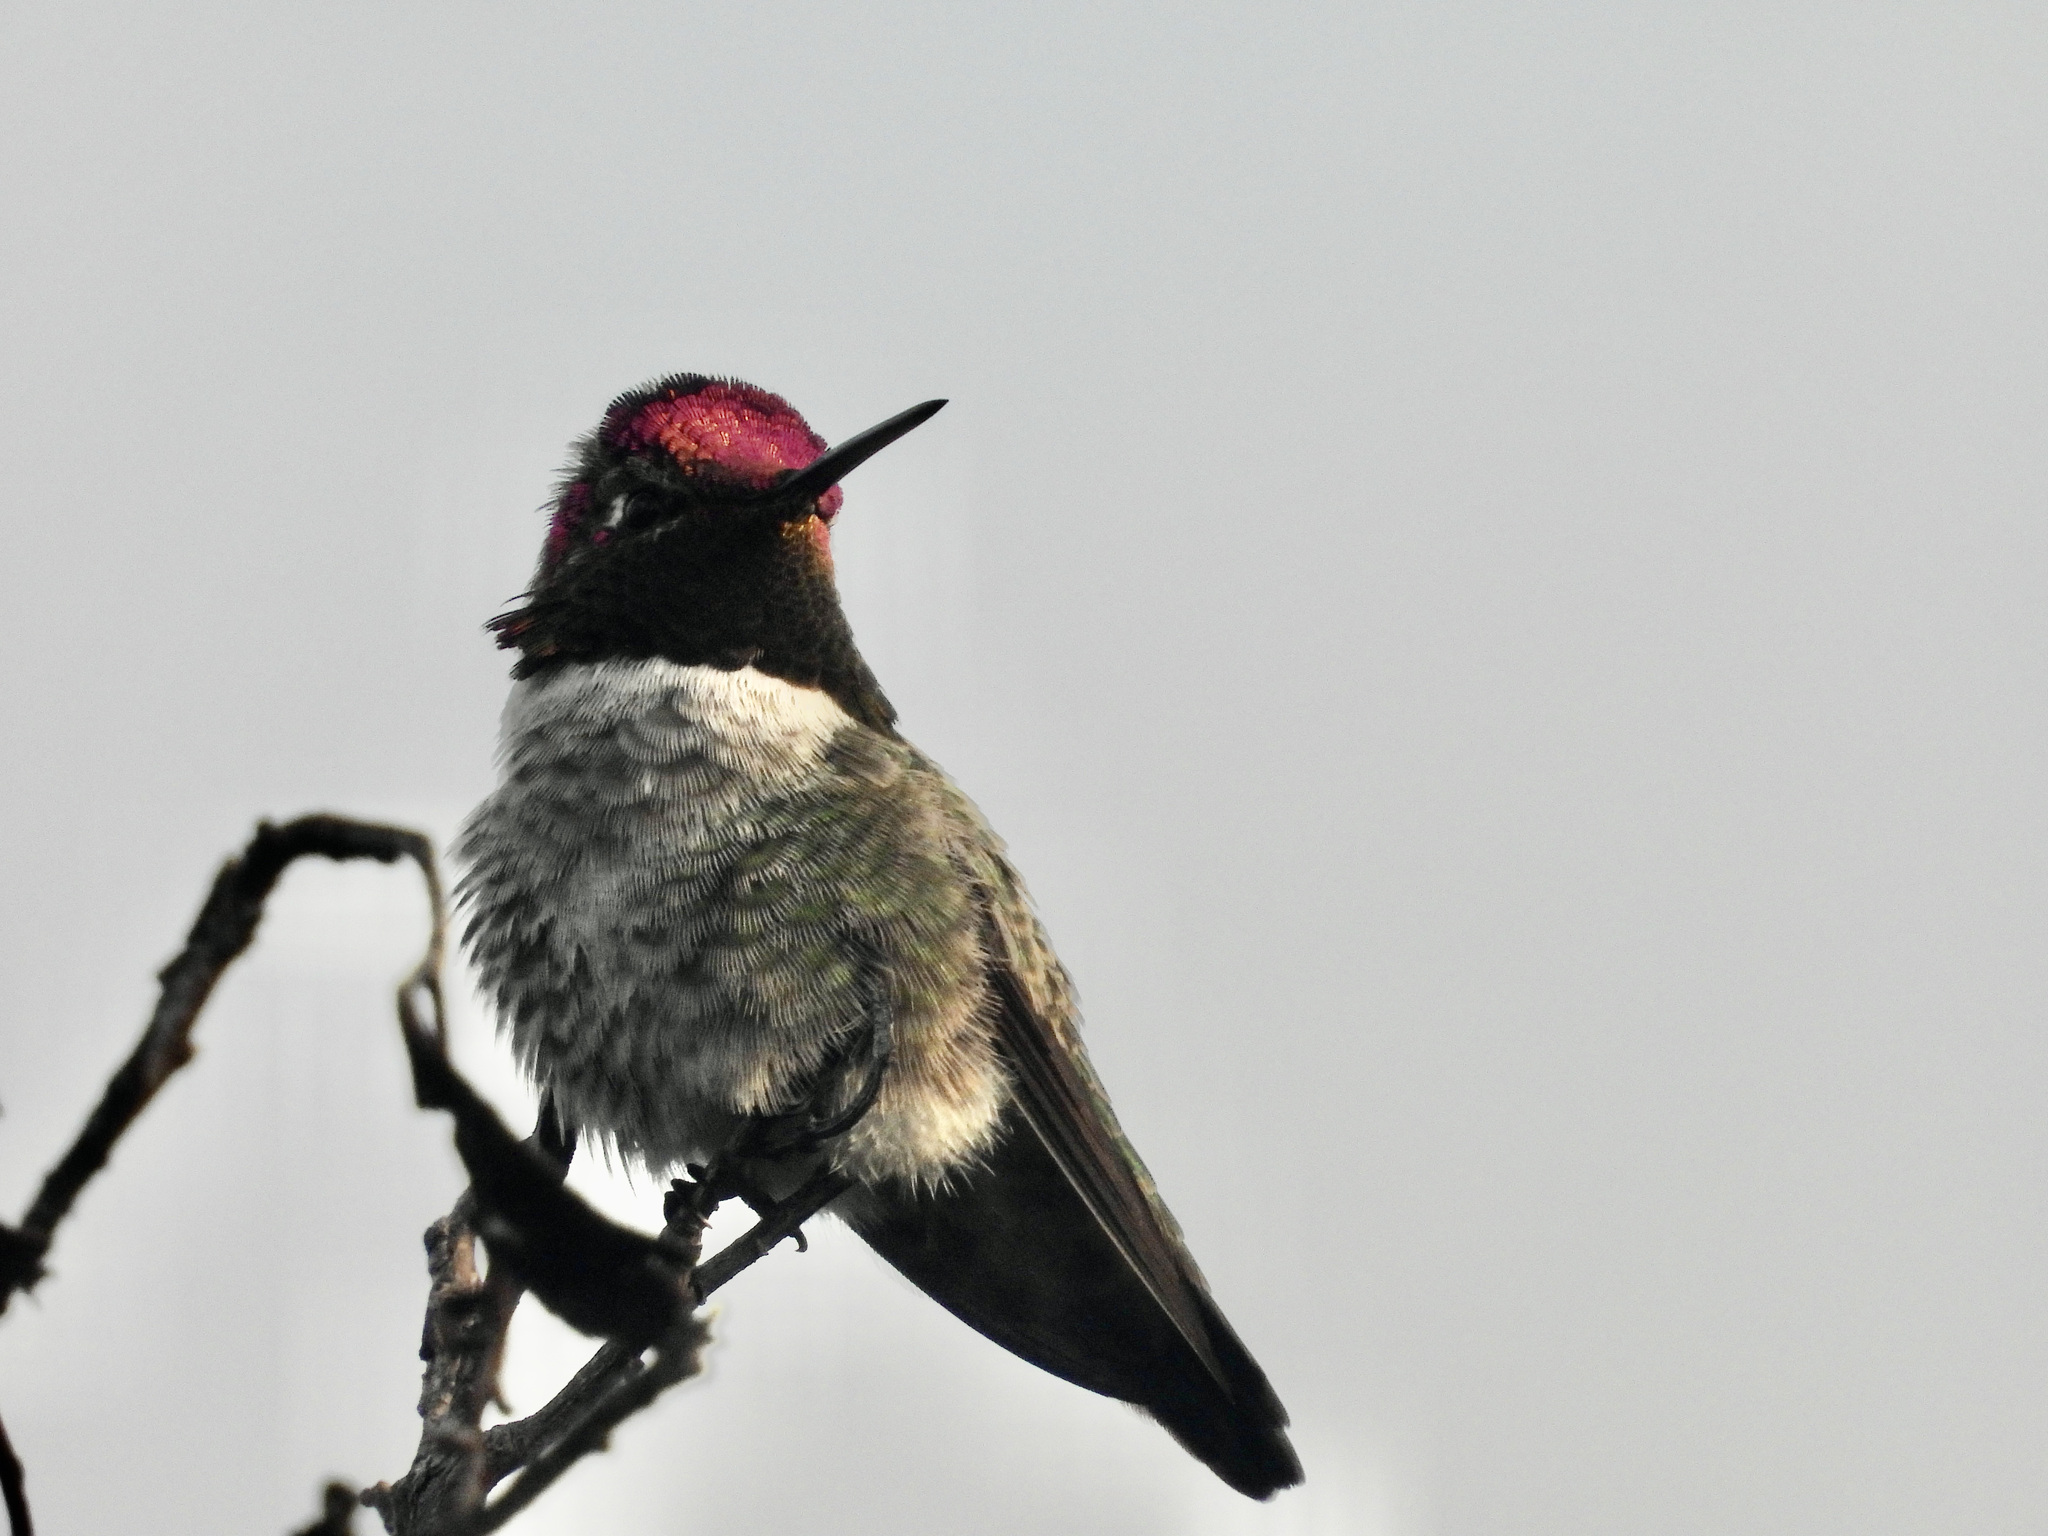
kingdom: Animalia
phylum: Chordata
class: Aves
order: Apodiformes
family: Trochilidae
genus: Calypte
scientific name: Calypte anna
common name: Anna's hummingbird
